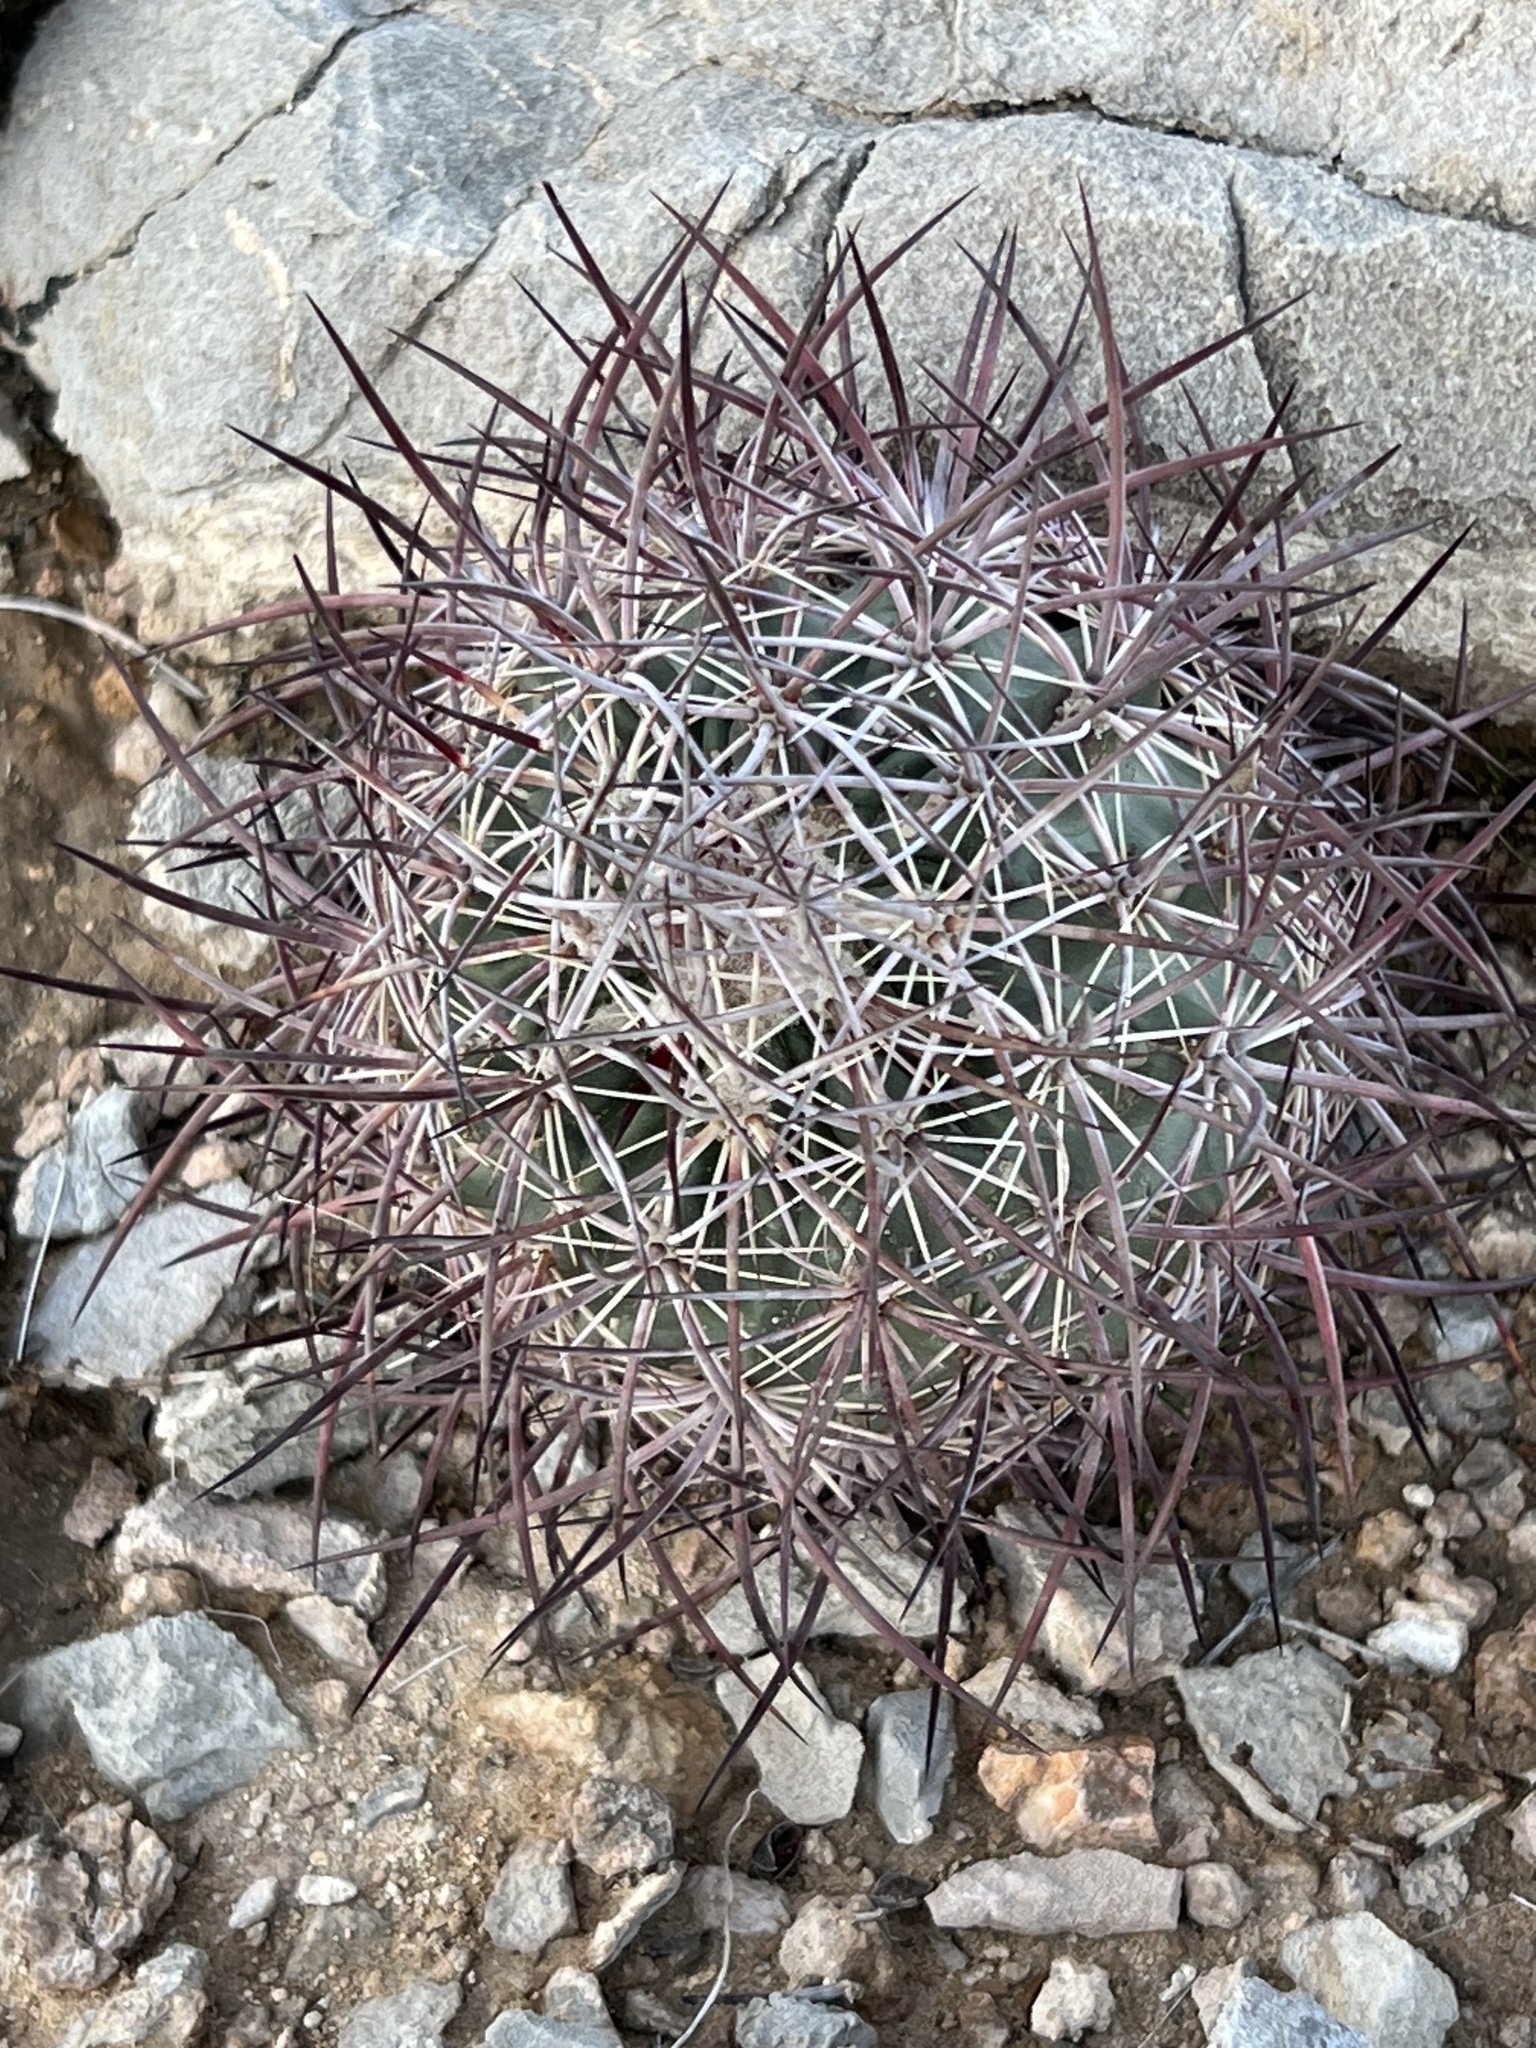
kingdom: Plantae
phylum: Tracheophyta
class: Magnoliopsida
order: Caryophyllales
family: Cactaceae
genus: Sclerocactus
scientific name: Sclerocactus johnsonii
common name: Eight-spine fishhook cactus
